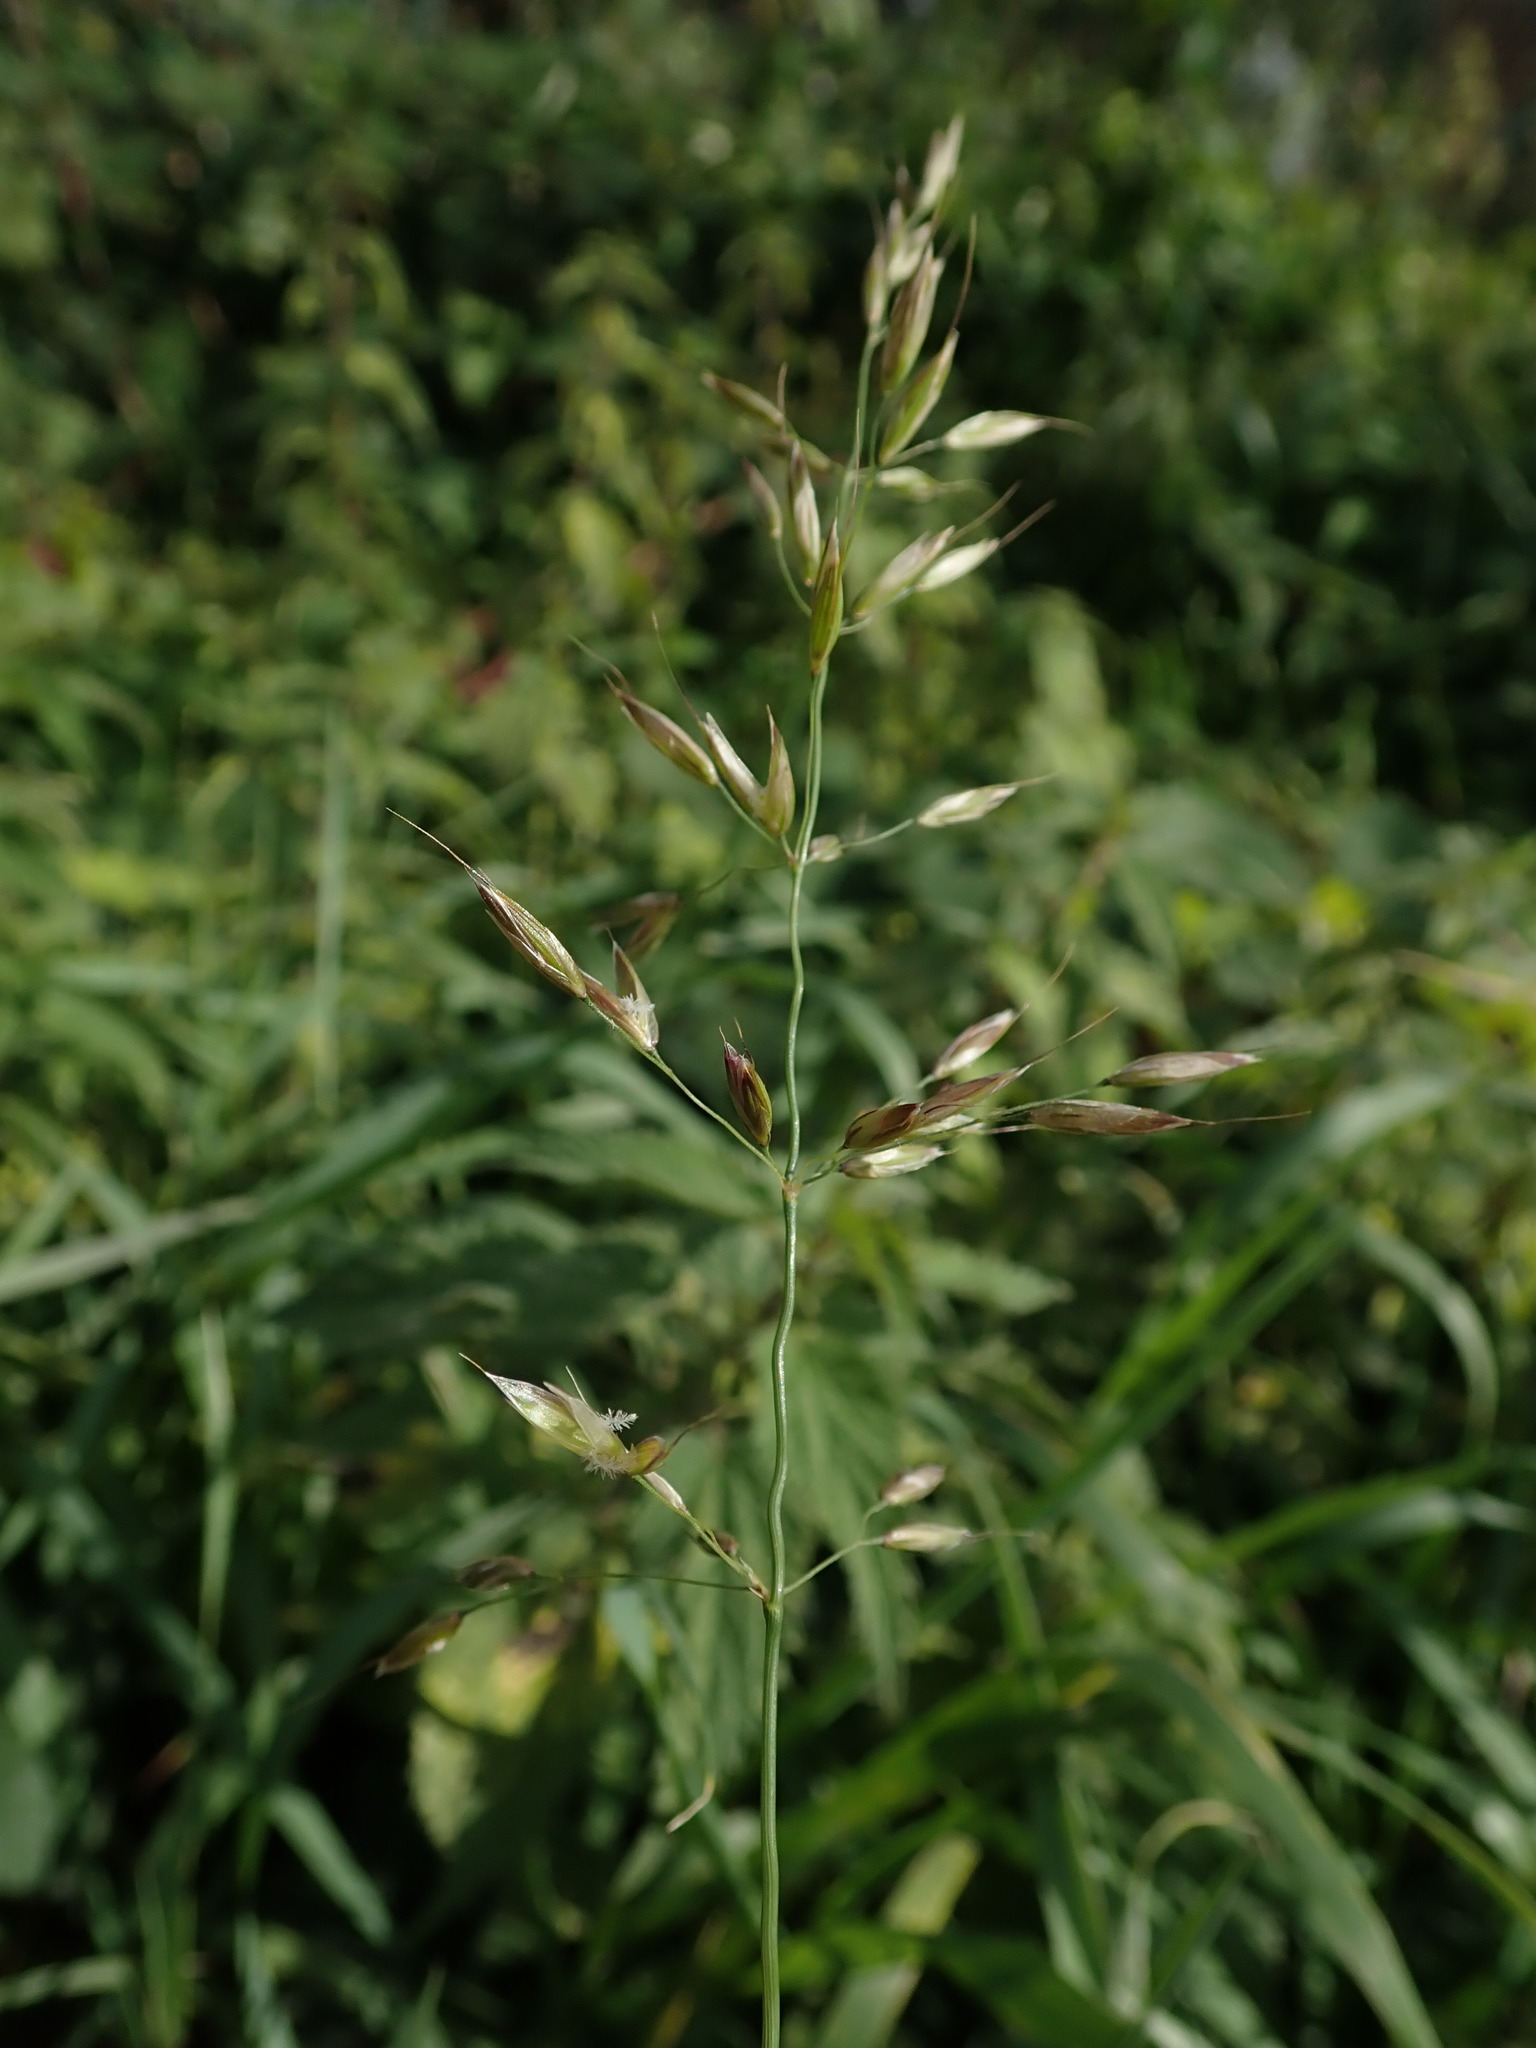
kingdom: Plantae
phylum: Tracheophyta
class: Liliopsida
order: Poales
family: Poaceae
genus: Arrhenatherum
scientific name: Arrhenatherum elatius
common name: Tall oatgrass
